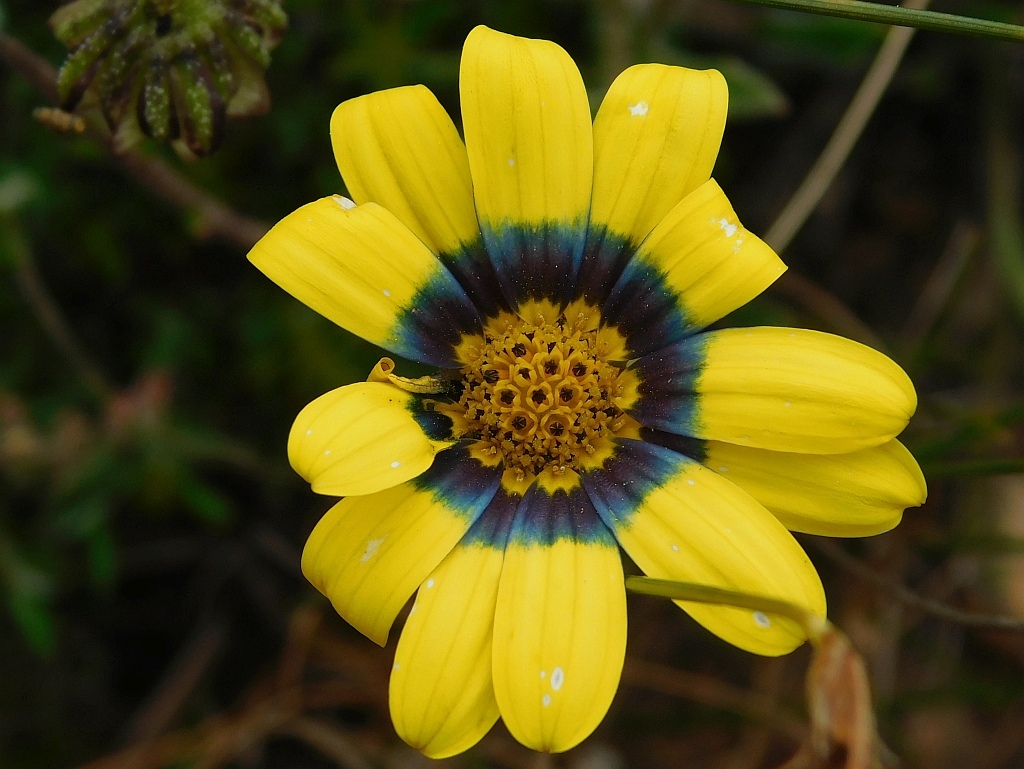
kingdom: Plantae
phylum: Tracheophyta
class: Magnoliopsida
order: Asterales
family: Asteraceae
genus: Osteospermum
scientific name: Osteospermum scariosum
